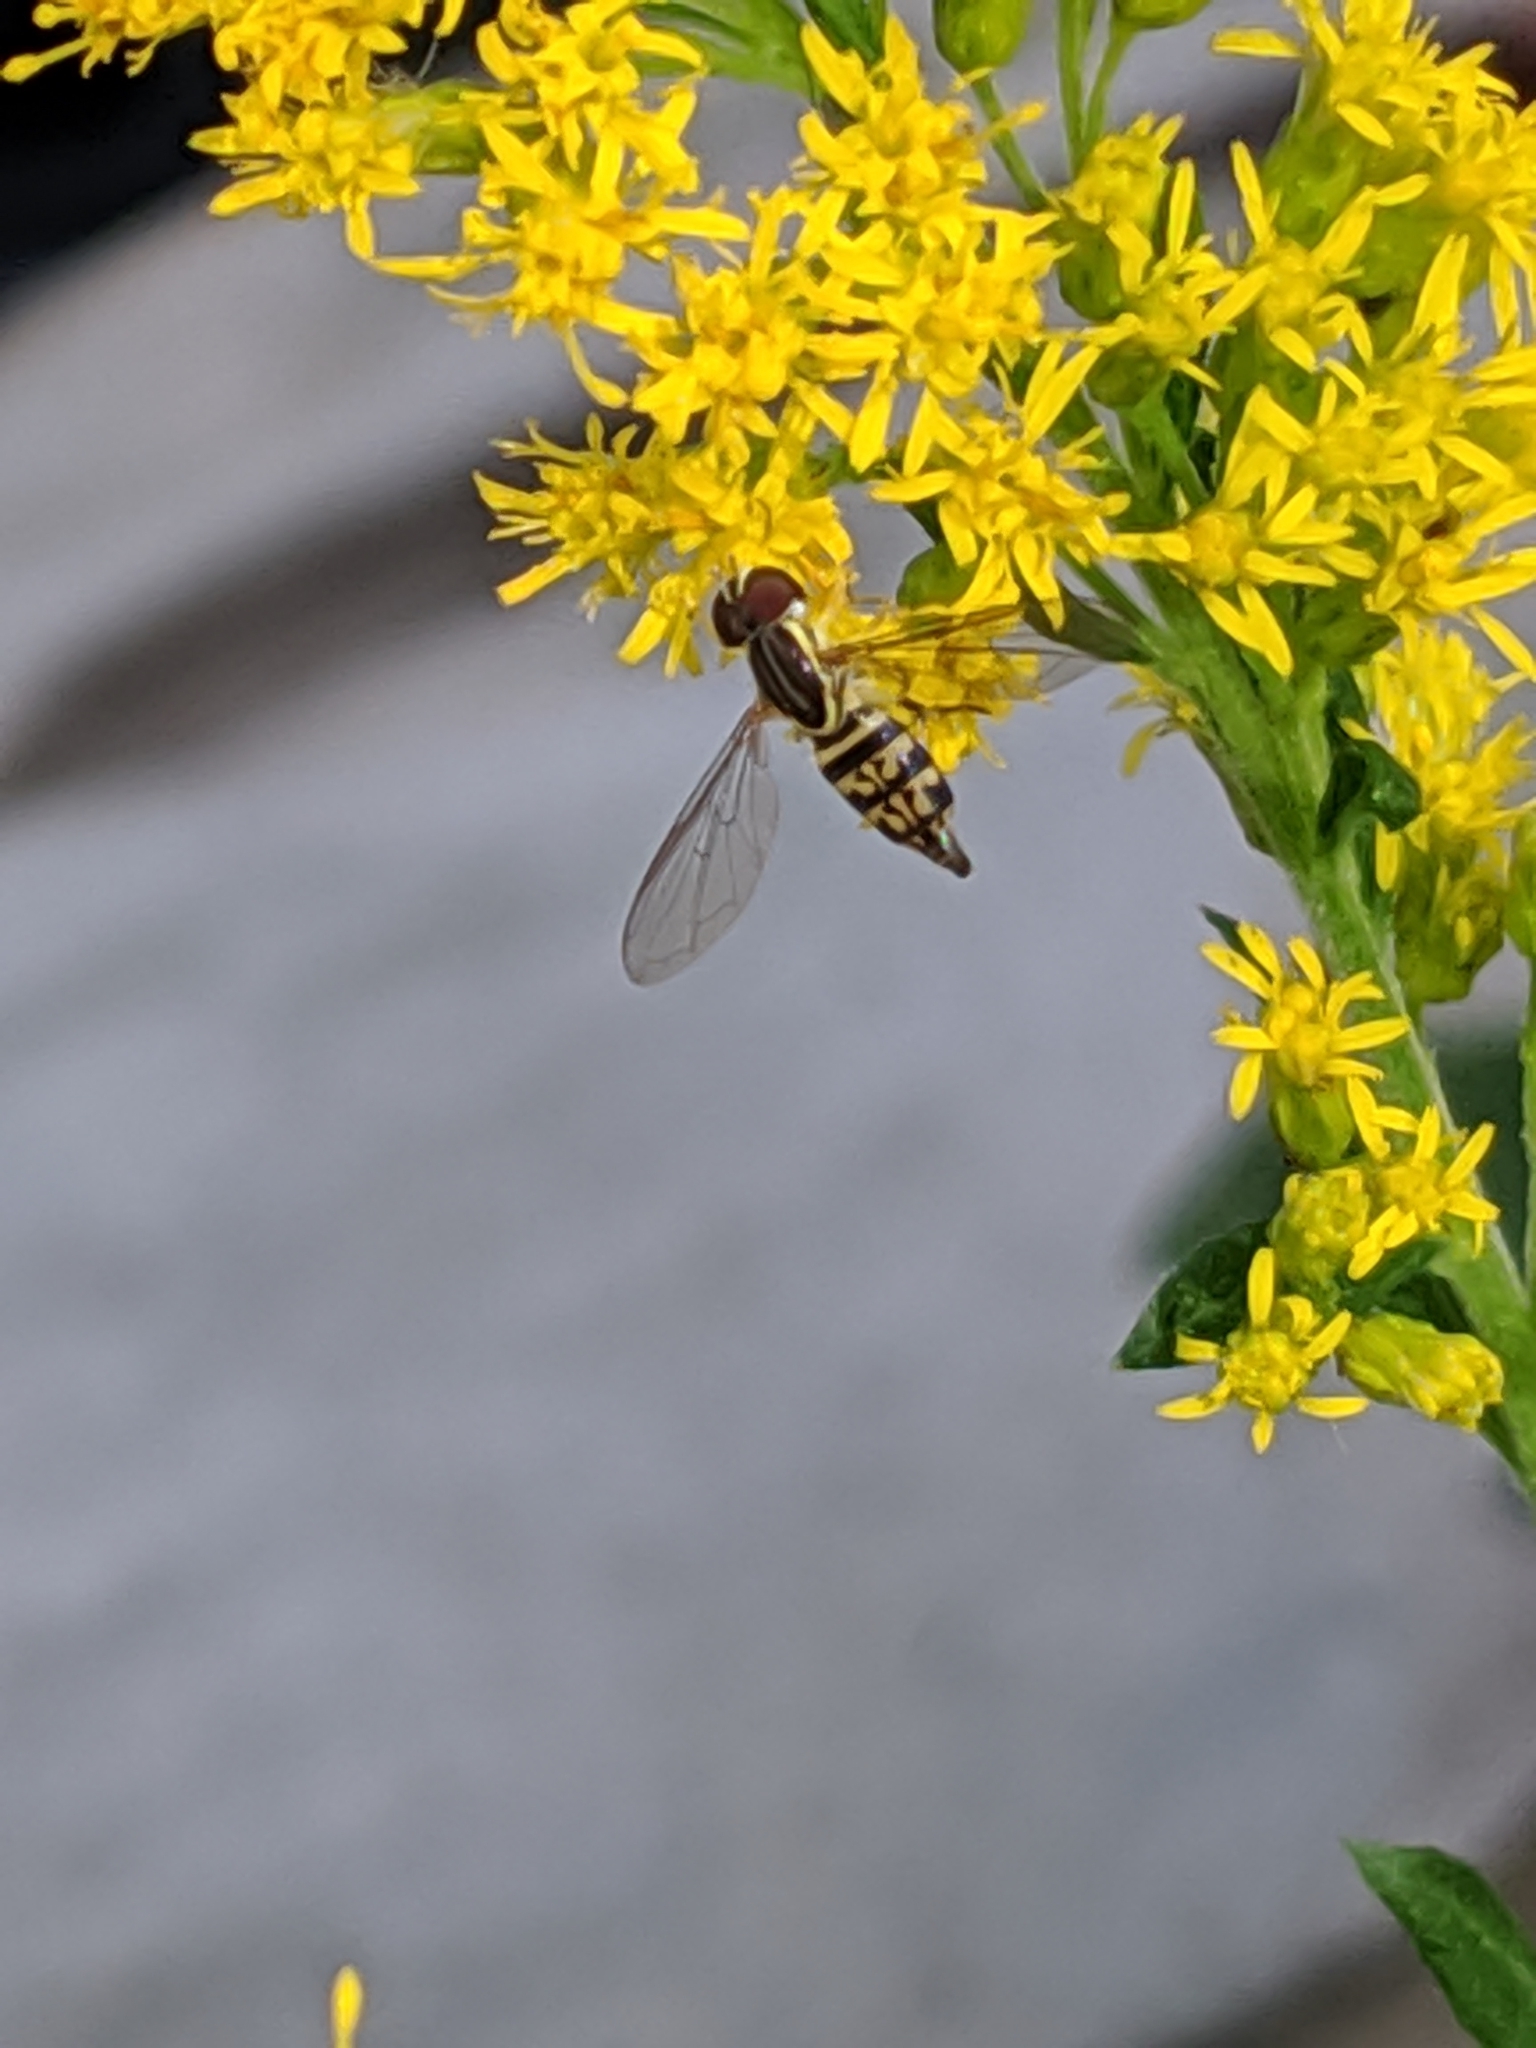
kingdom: Animalia
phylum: Arthropoda
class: Insecta
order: Diptera
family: Syrphidae
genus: Toxomerus
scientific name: Toxomerus geminatus
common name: Eastern calligrapher
